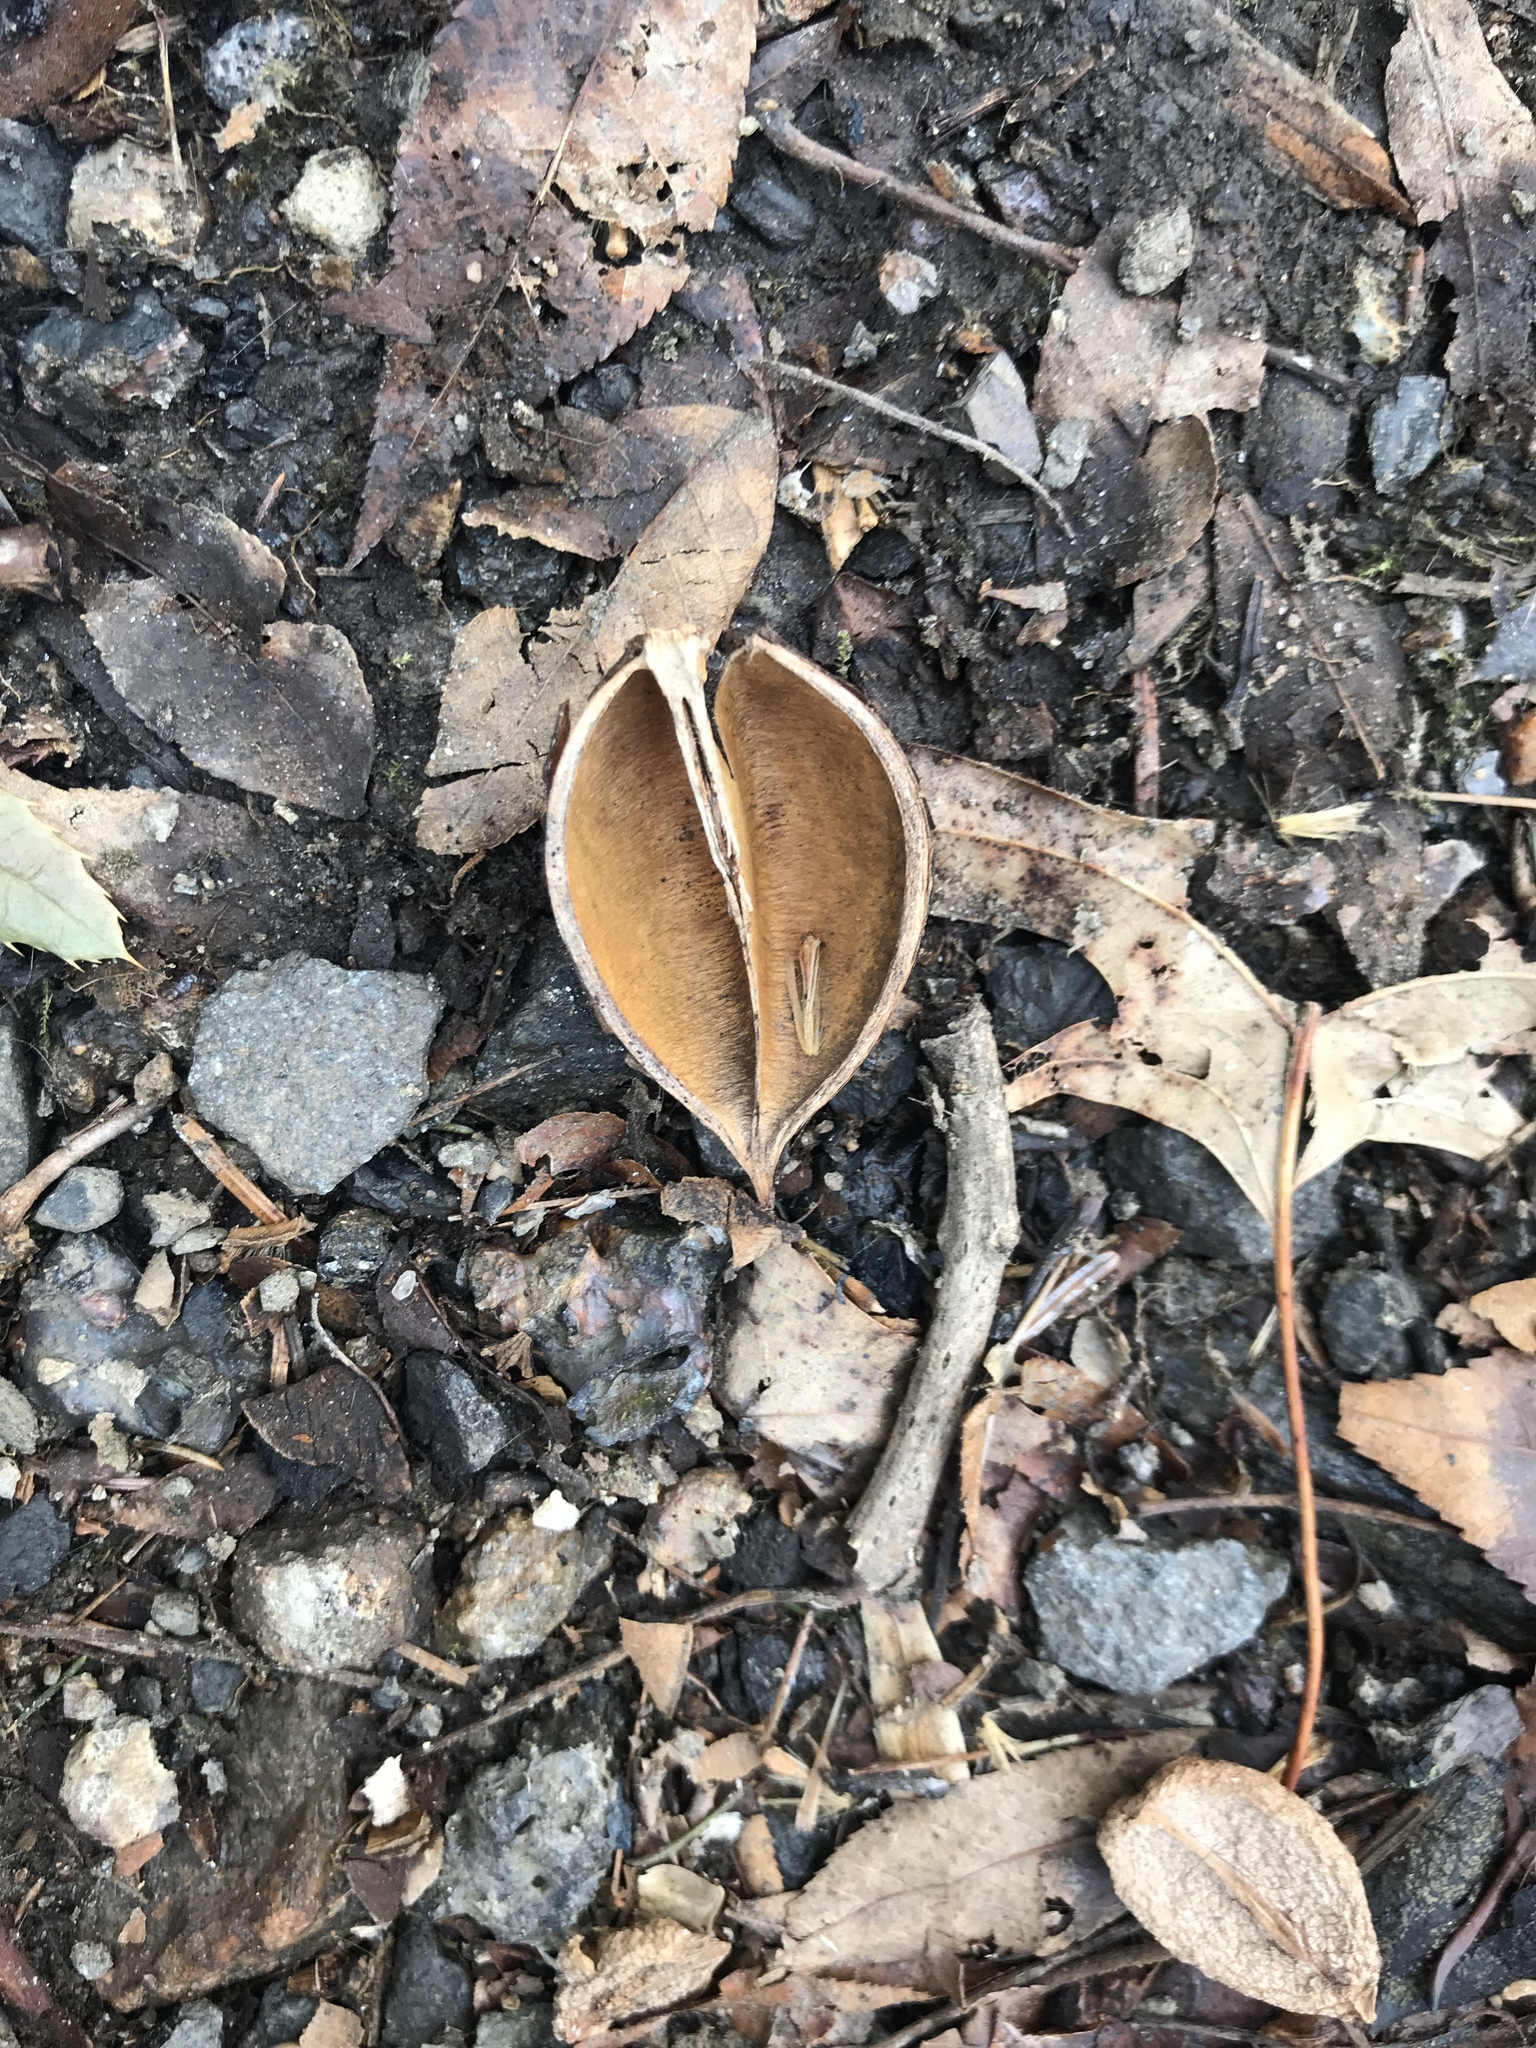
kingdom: Plantae
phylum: Tracheophyta
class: Magnoliopsida
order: Lamiales
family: Paulowniaceae
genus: Paulownia
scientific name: Paulownia tomentosa
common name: Foxglove-tree
